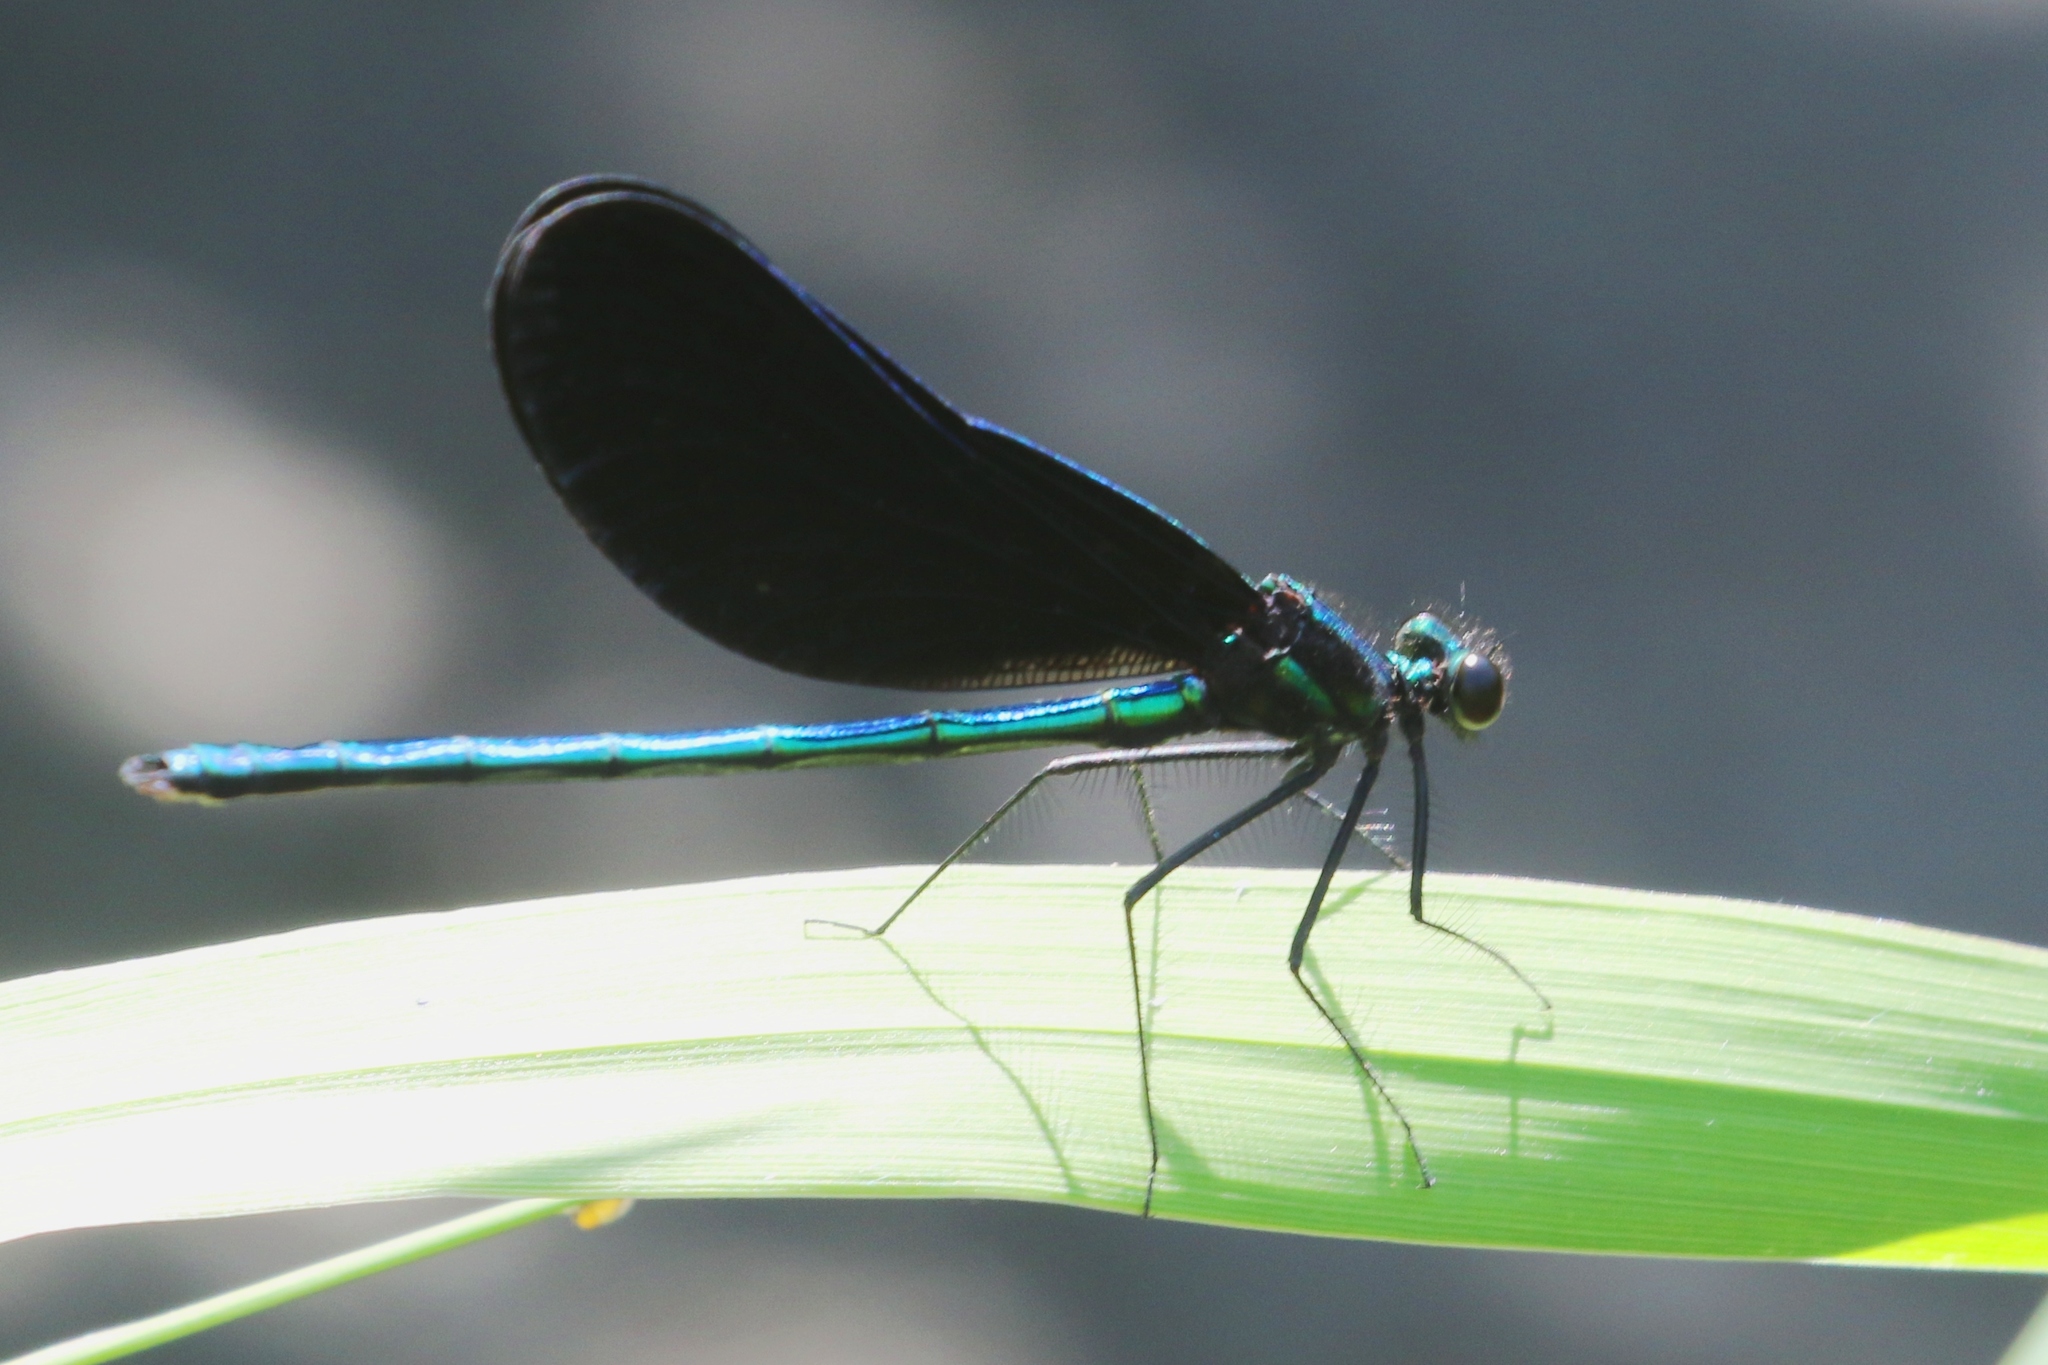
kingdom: Animalia
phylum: Arthropoda
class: Insecta
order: Odonata
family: Calopterygidae
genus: Calopteryx
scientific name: Calopteryx maculata
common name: Ebony jewelwing
